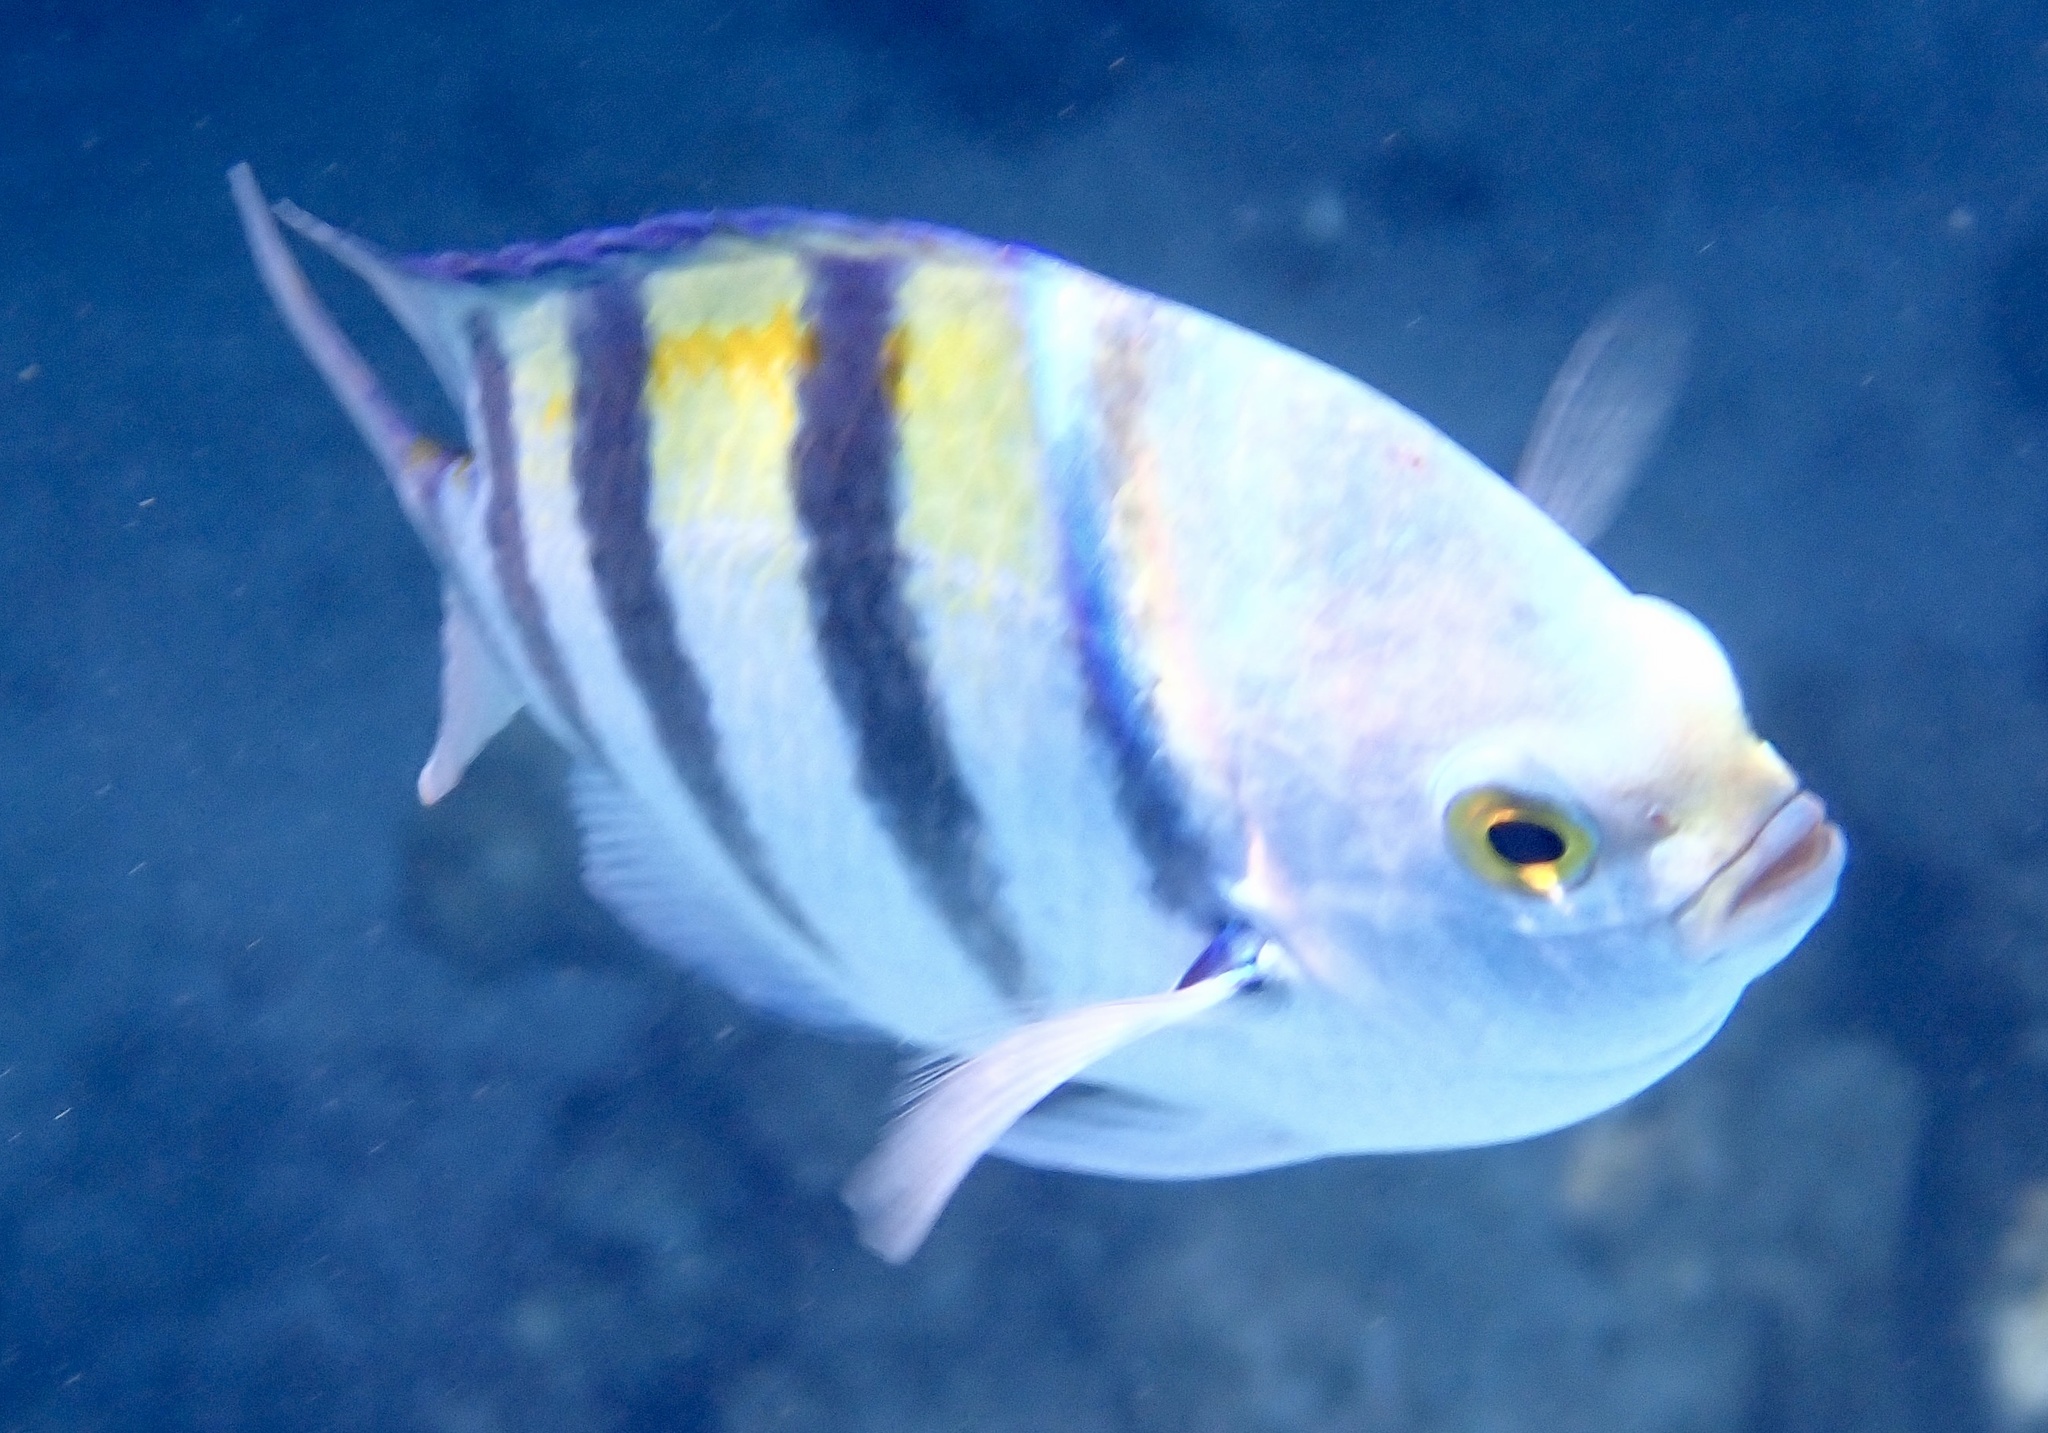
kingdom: Animalia
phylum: Chordata
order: Perciformes
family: Pomacentridae
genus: Abudefduf
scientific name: Abudefduf vaigiensis
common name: Indo-pacific sergeant
